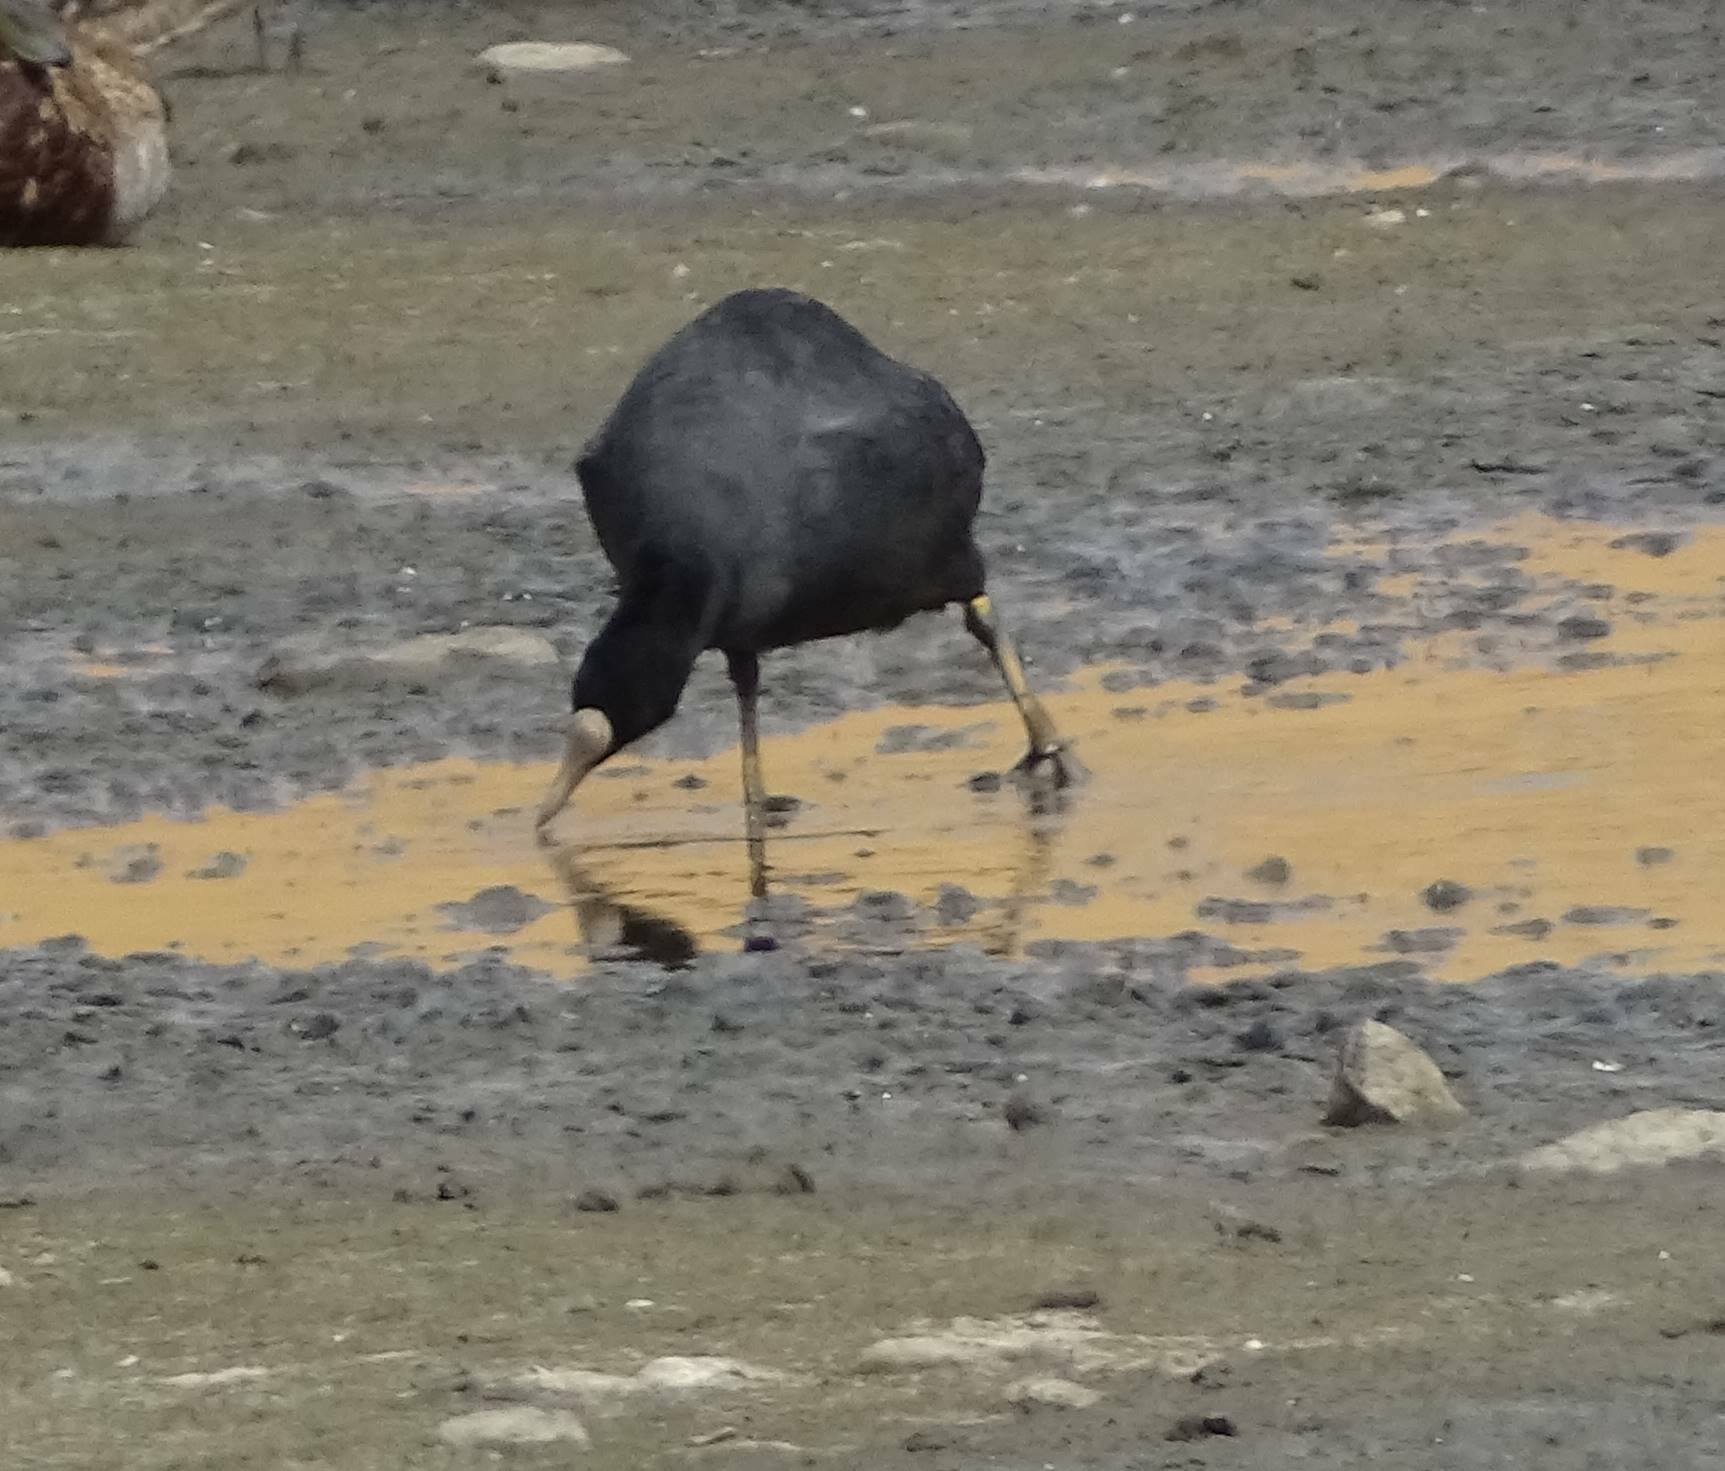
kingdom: Animalia
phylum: Chordata
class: Aves
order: Gruiformes
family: Rallidae
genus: Fulica
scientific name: Fulica atra
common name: Eurasian coot
